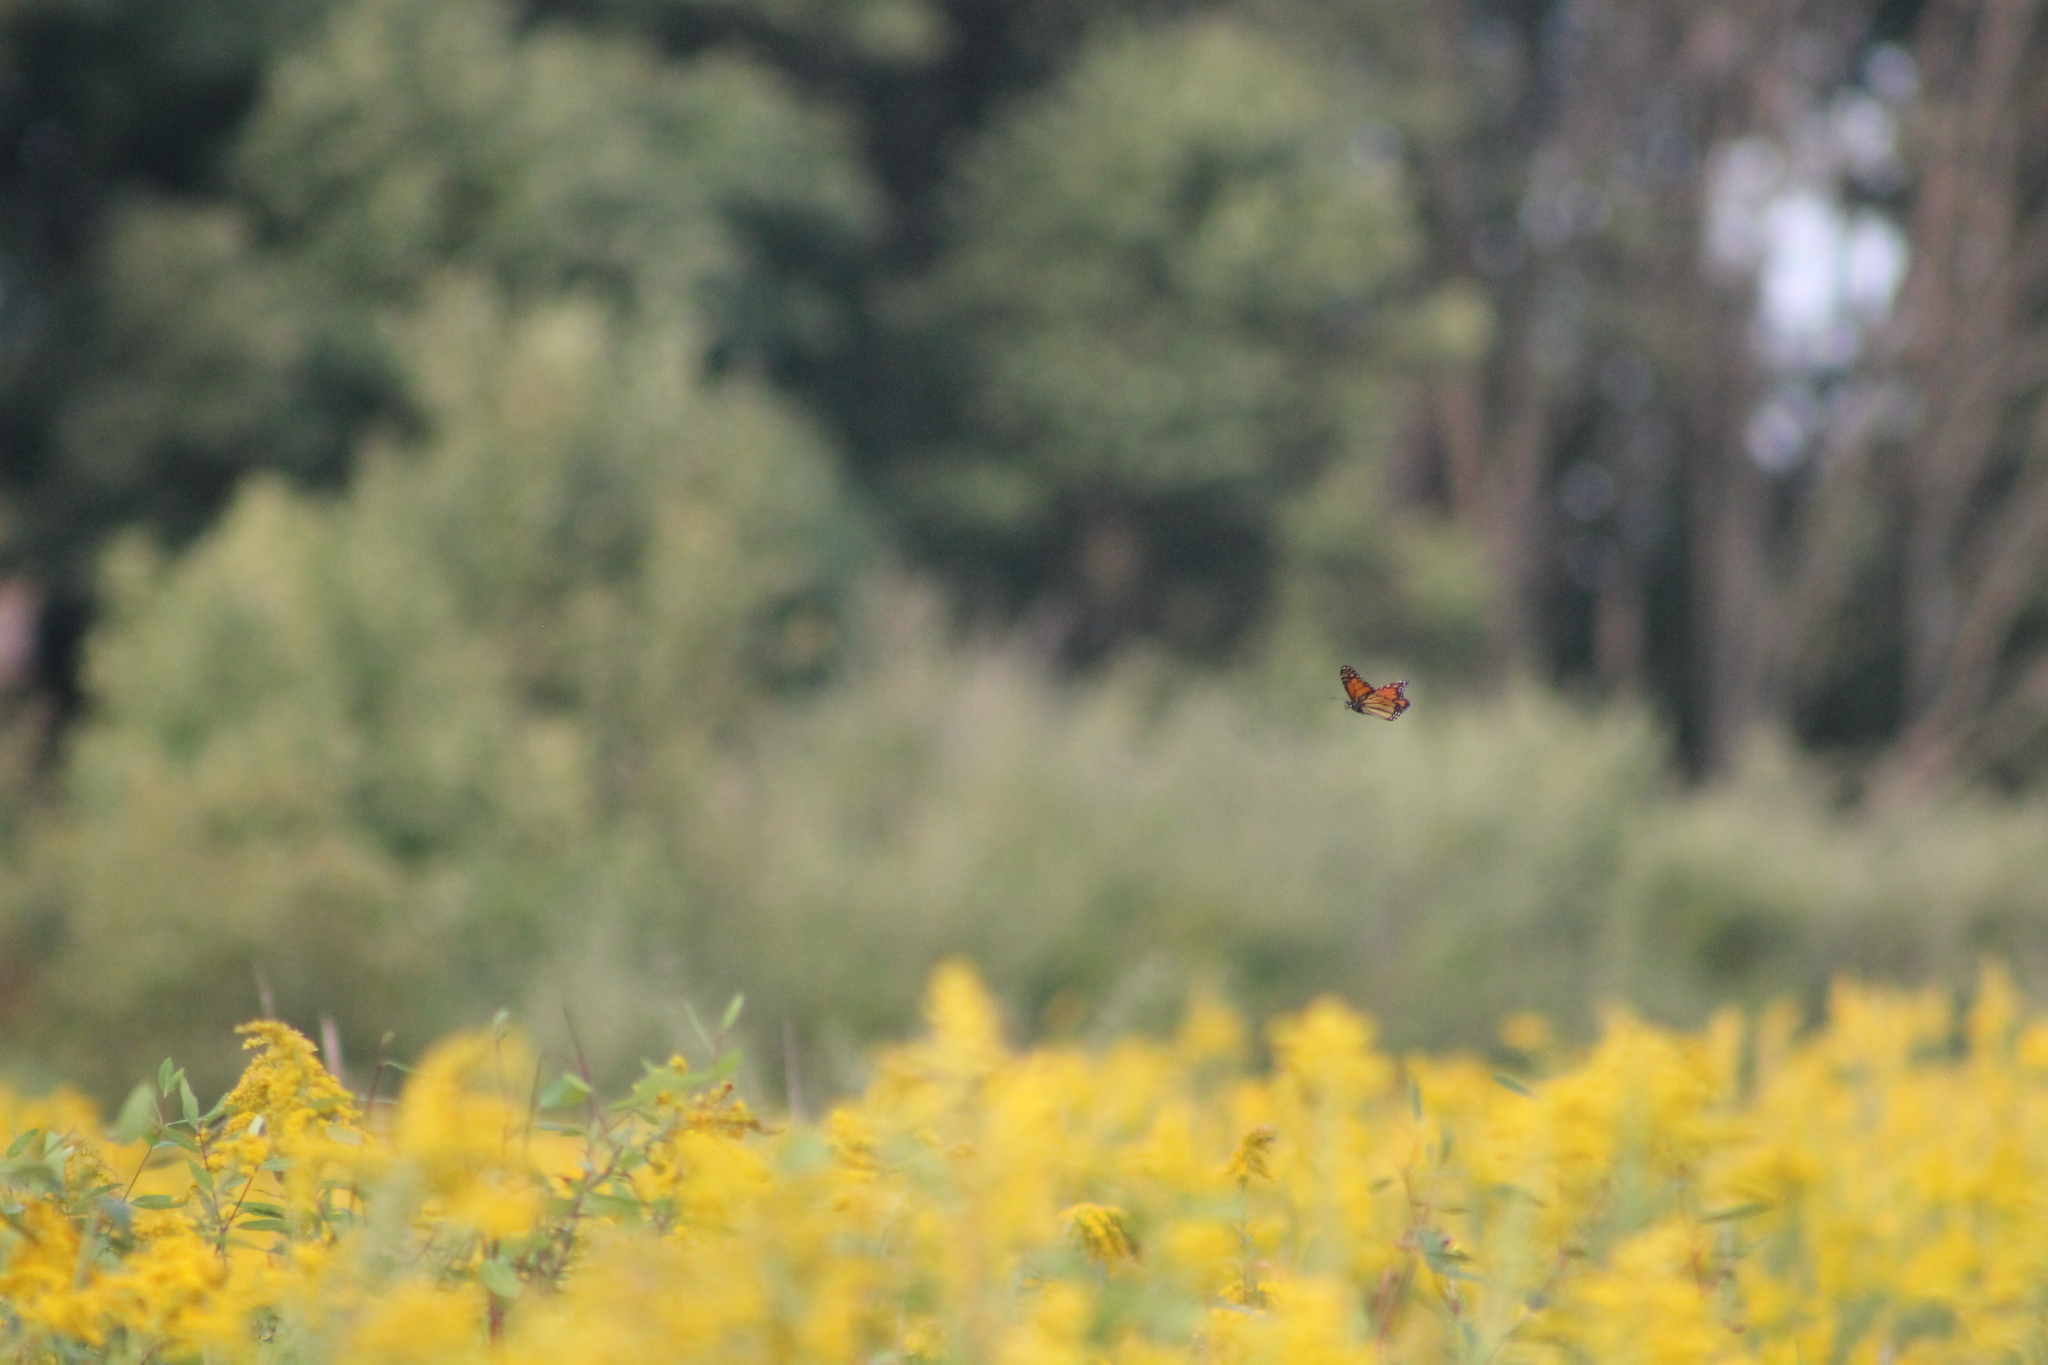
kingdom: Animalia
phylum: Arthropoda
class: Insecta
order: Lepidoptera
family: Nymphalidae
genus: Danaus
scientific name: Danaus plexippus
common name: Monarch
